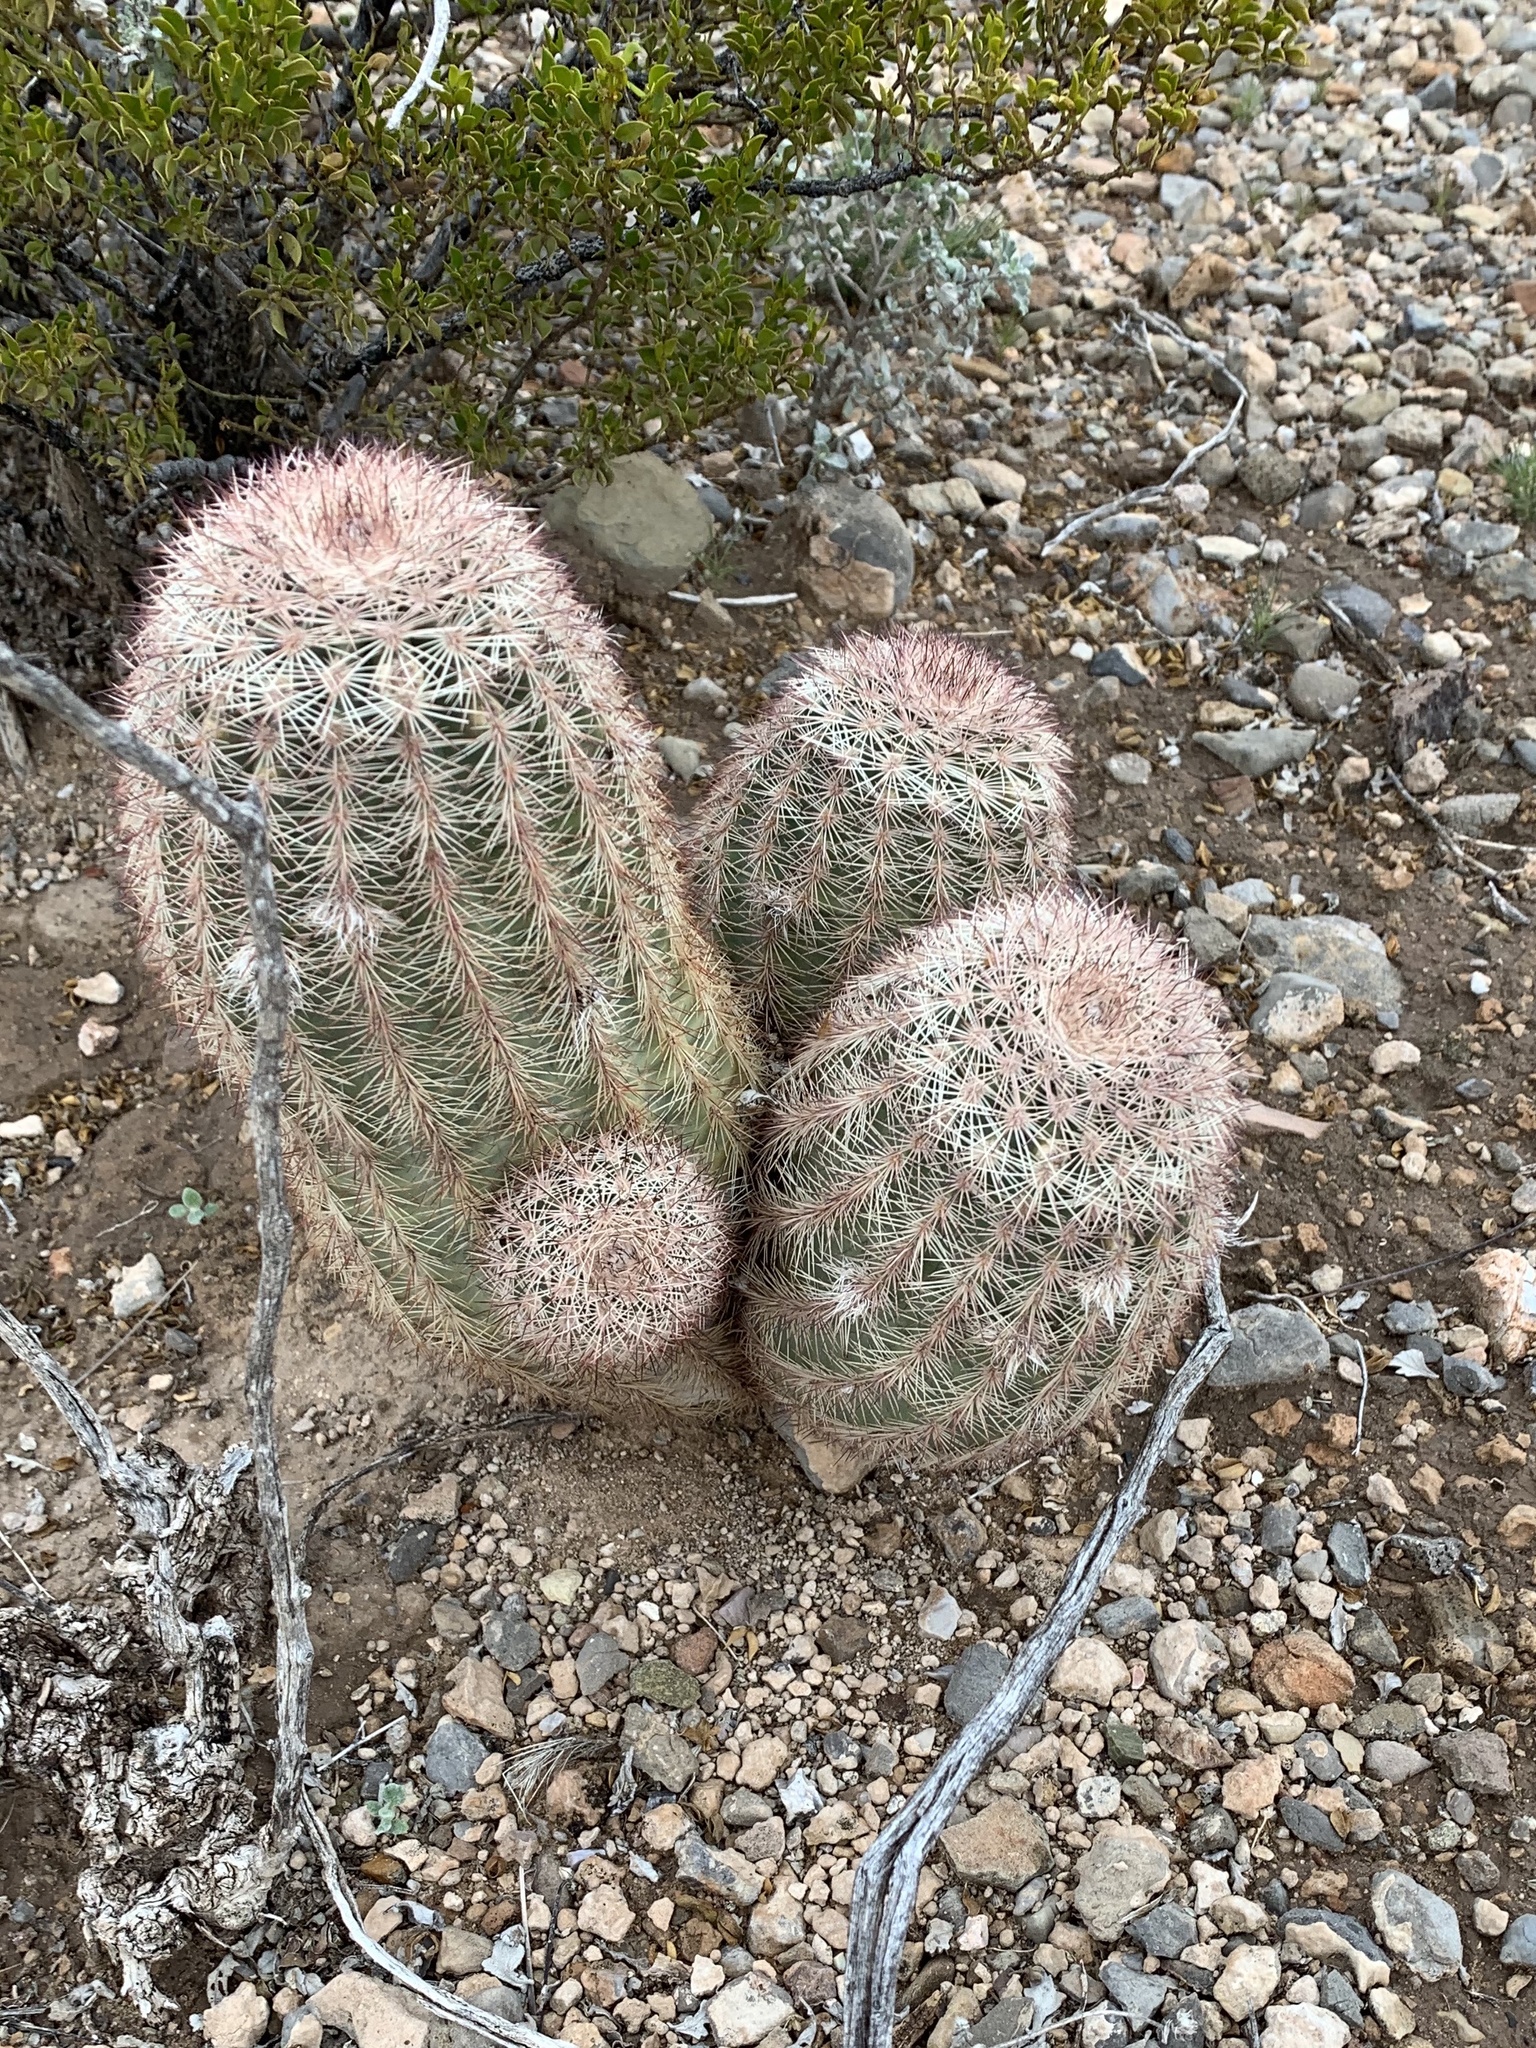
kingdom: Plantae
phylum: Tracheophyta
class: Magnoliopsida
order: Caryophyllales
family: Cactaceae
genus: Echinocereus
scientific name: Echinocereus dasyacanthus
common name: Spiny hedgehog cactus
